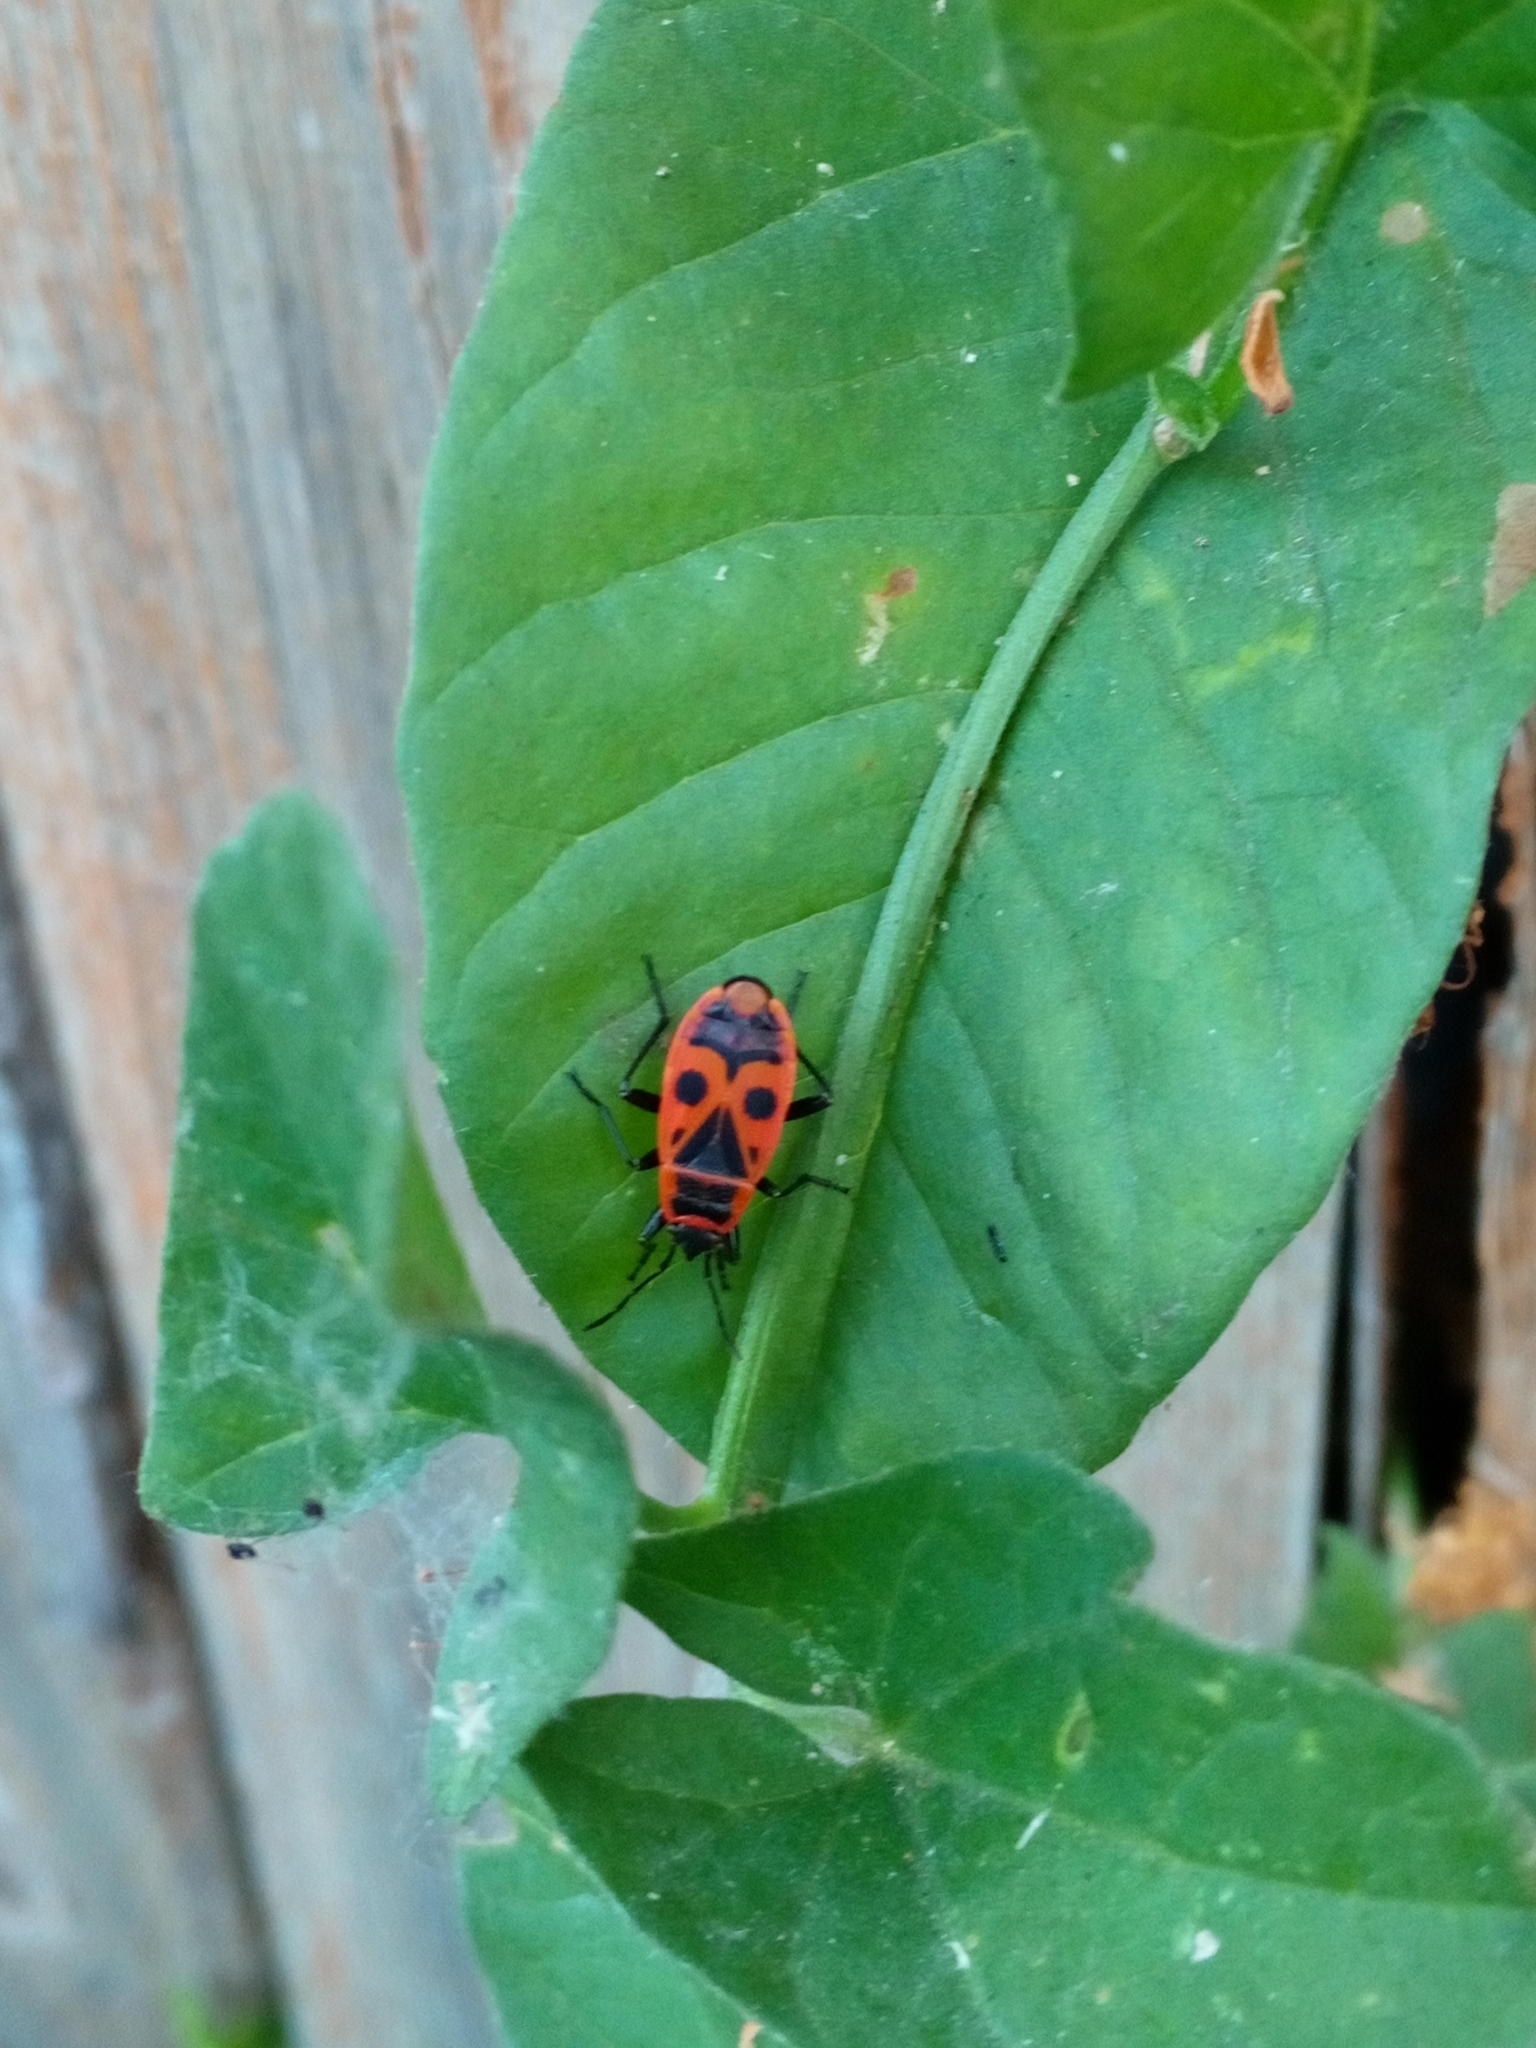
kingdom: Animalia
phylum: Arthropoda
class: Insecta
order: Hemiptera
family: Pyrrhocoridae
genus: Pyrrhocoris
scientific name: Pyrrhocoris apterus
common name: Firebug
